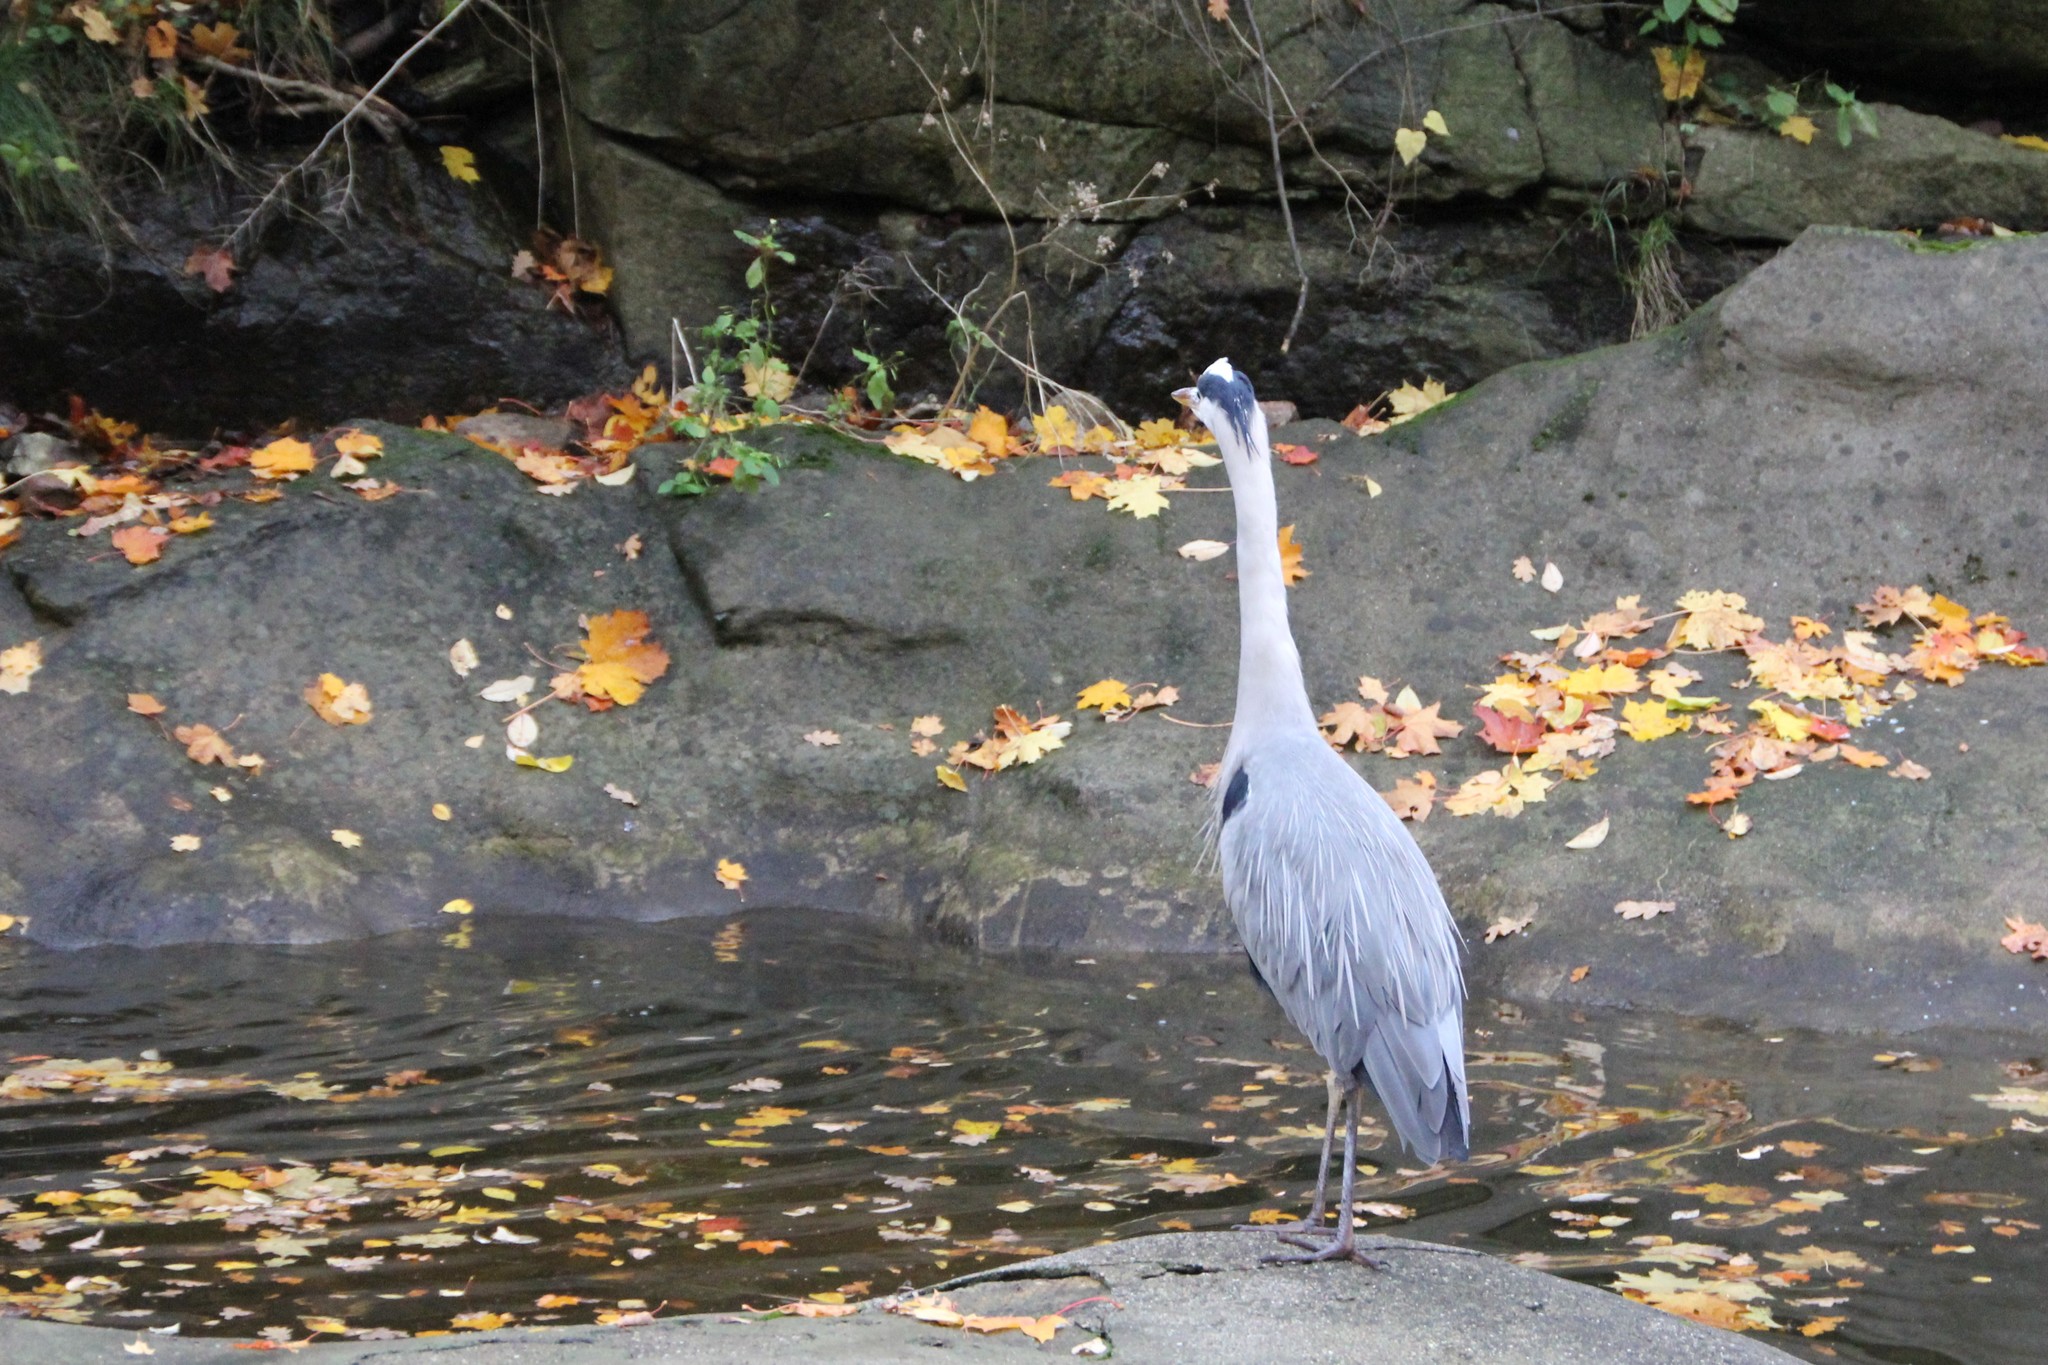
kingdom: Animalia
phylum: Chordata
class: Aves
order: Pelecaniformes
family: Ardeidae
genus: Ardea
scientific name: Ardea cinerea
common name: Grey heron
